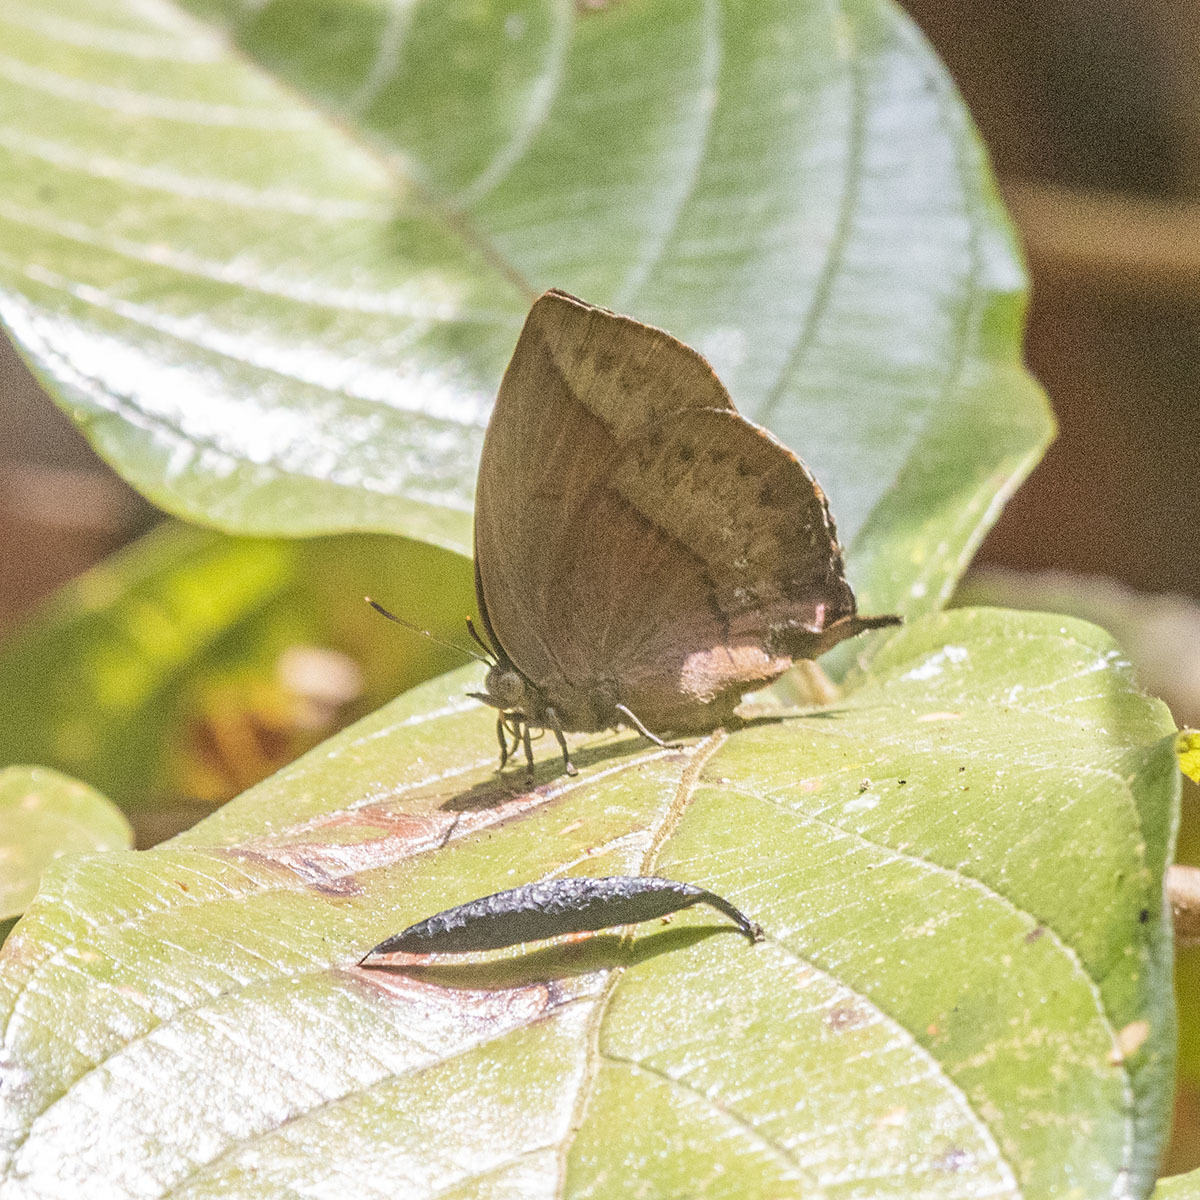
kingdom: Animalia
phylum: Arthropoda
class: Insecta
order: Lepidoptera
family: Lycaenidae
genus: Amblypodia
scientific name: Amblypodia anita
